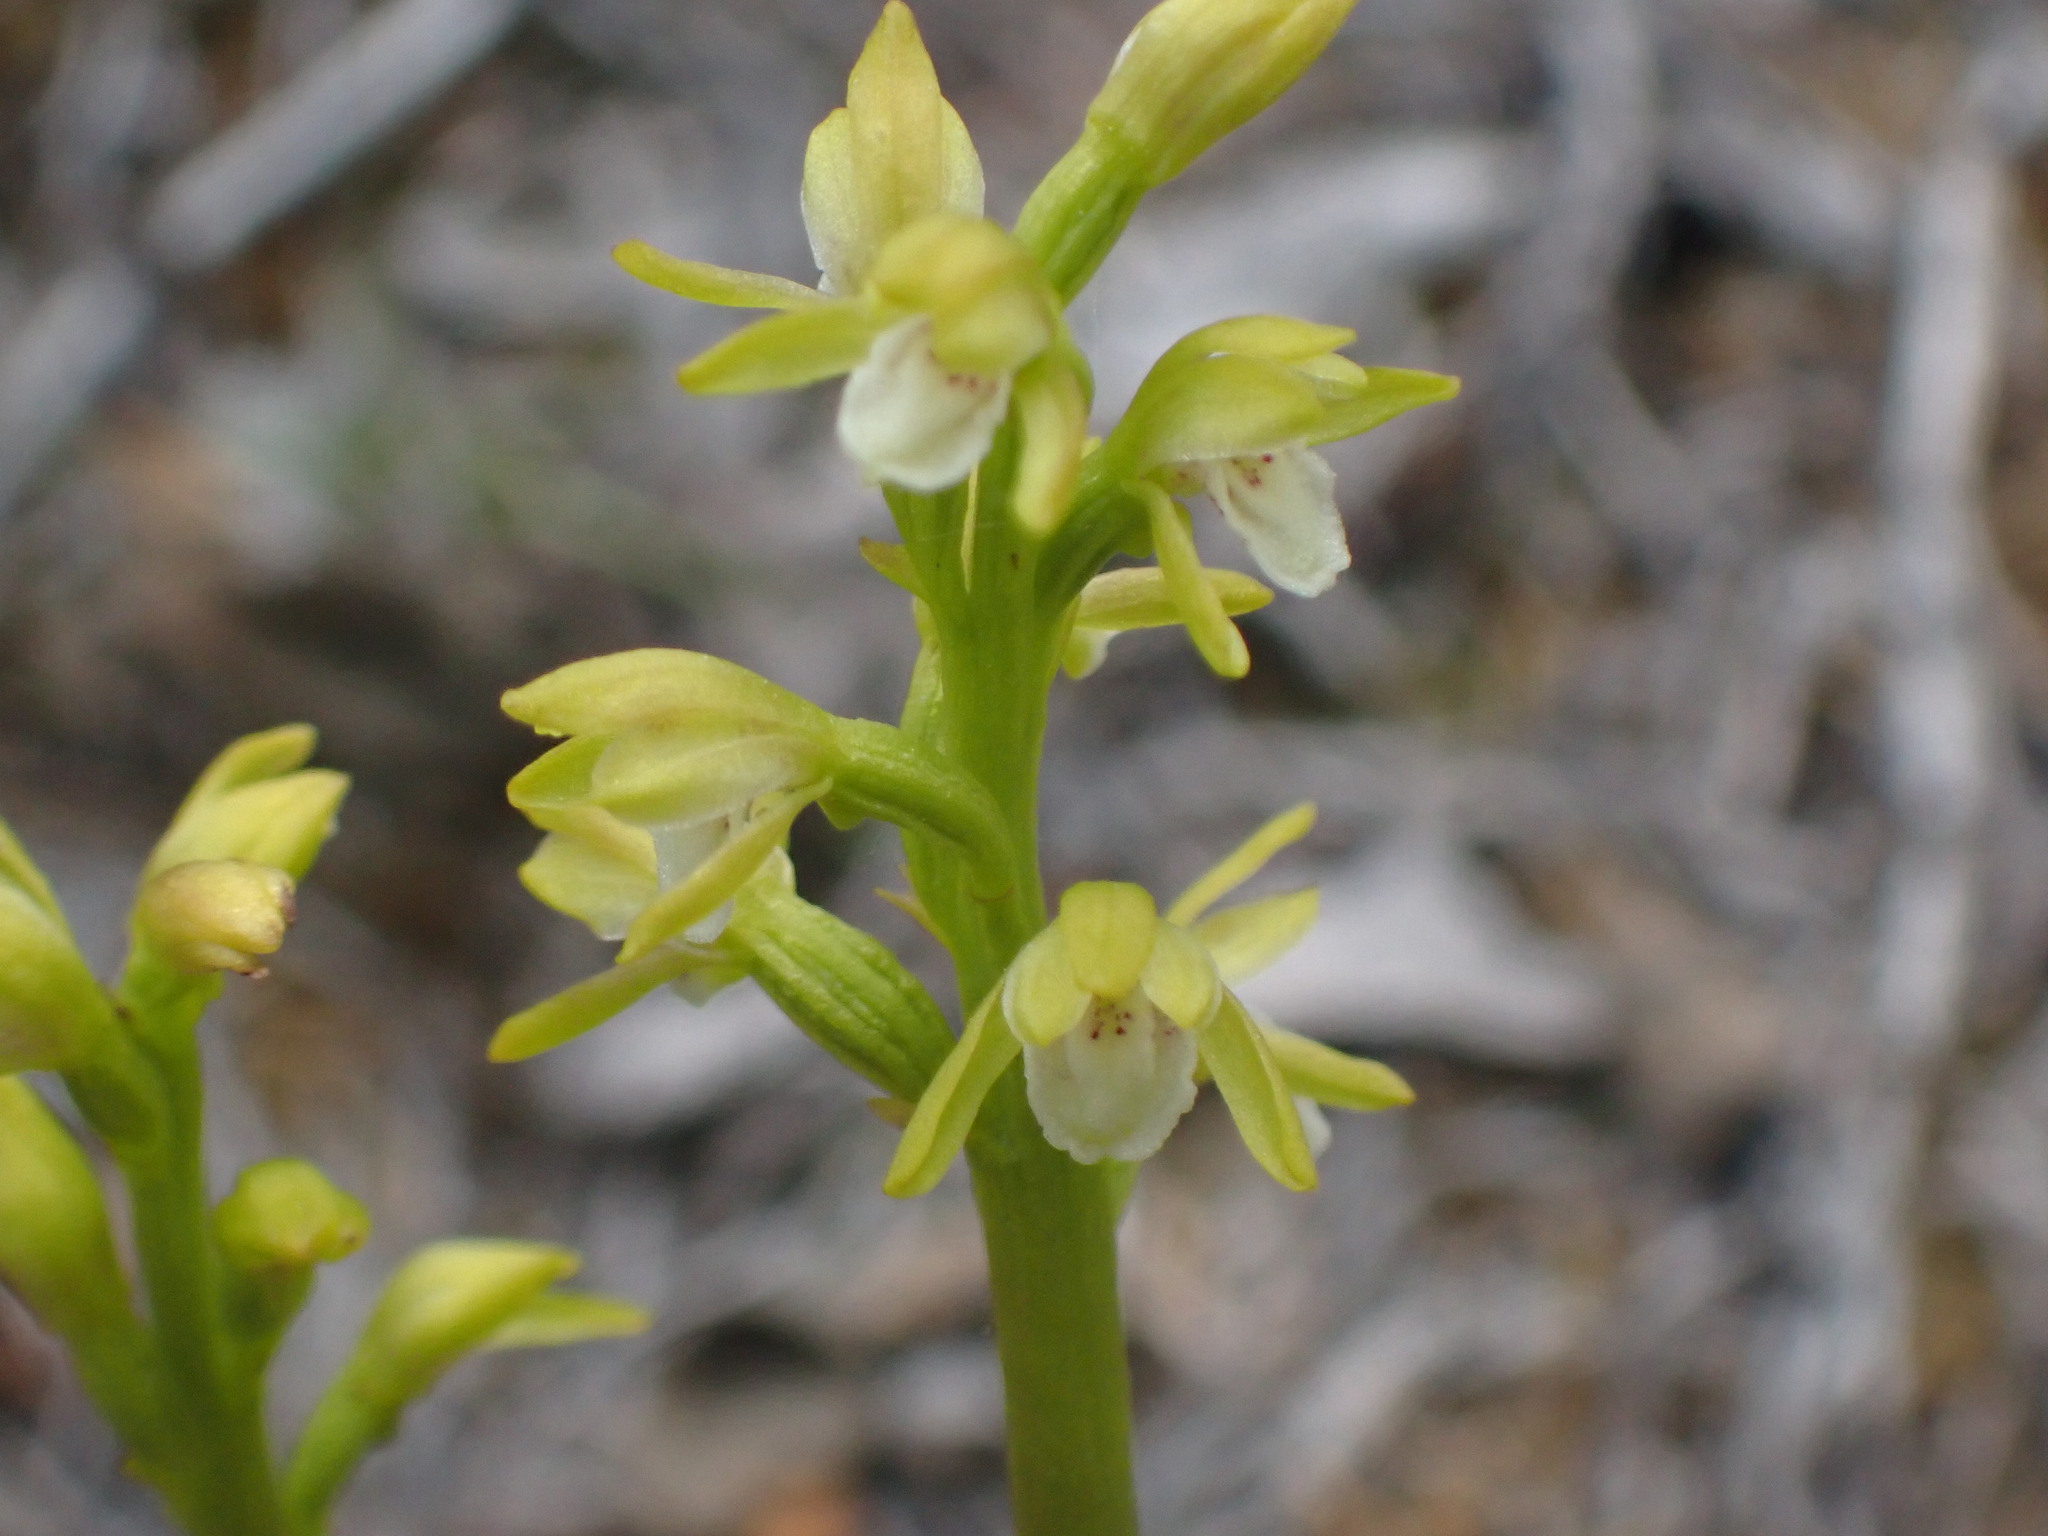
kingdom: Plantae
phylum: Tracheophyta
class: Liliopsida
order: Asparagales
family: Orchidaceae
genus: Corallorhiza
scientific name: Corallorhiza trifida
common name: Yellow coralroot
